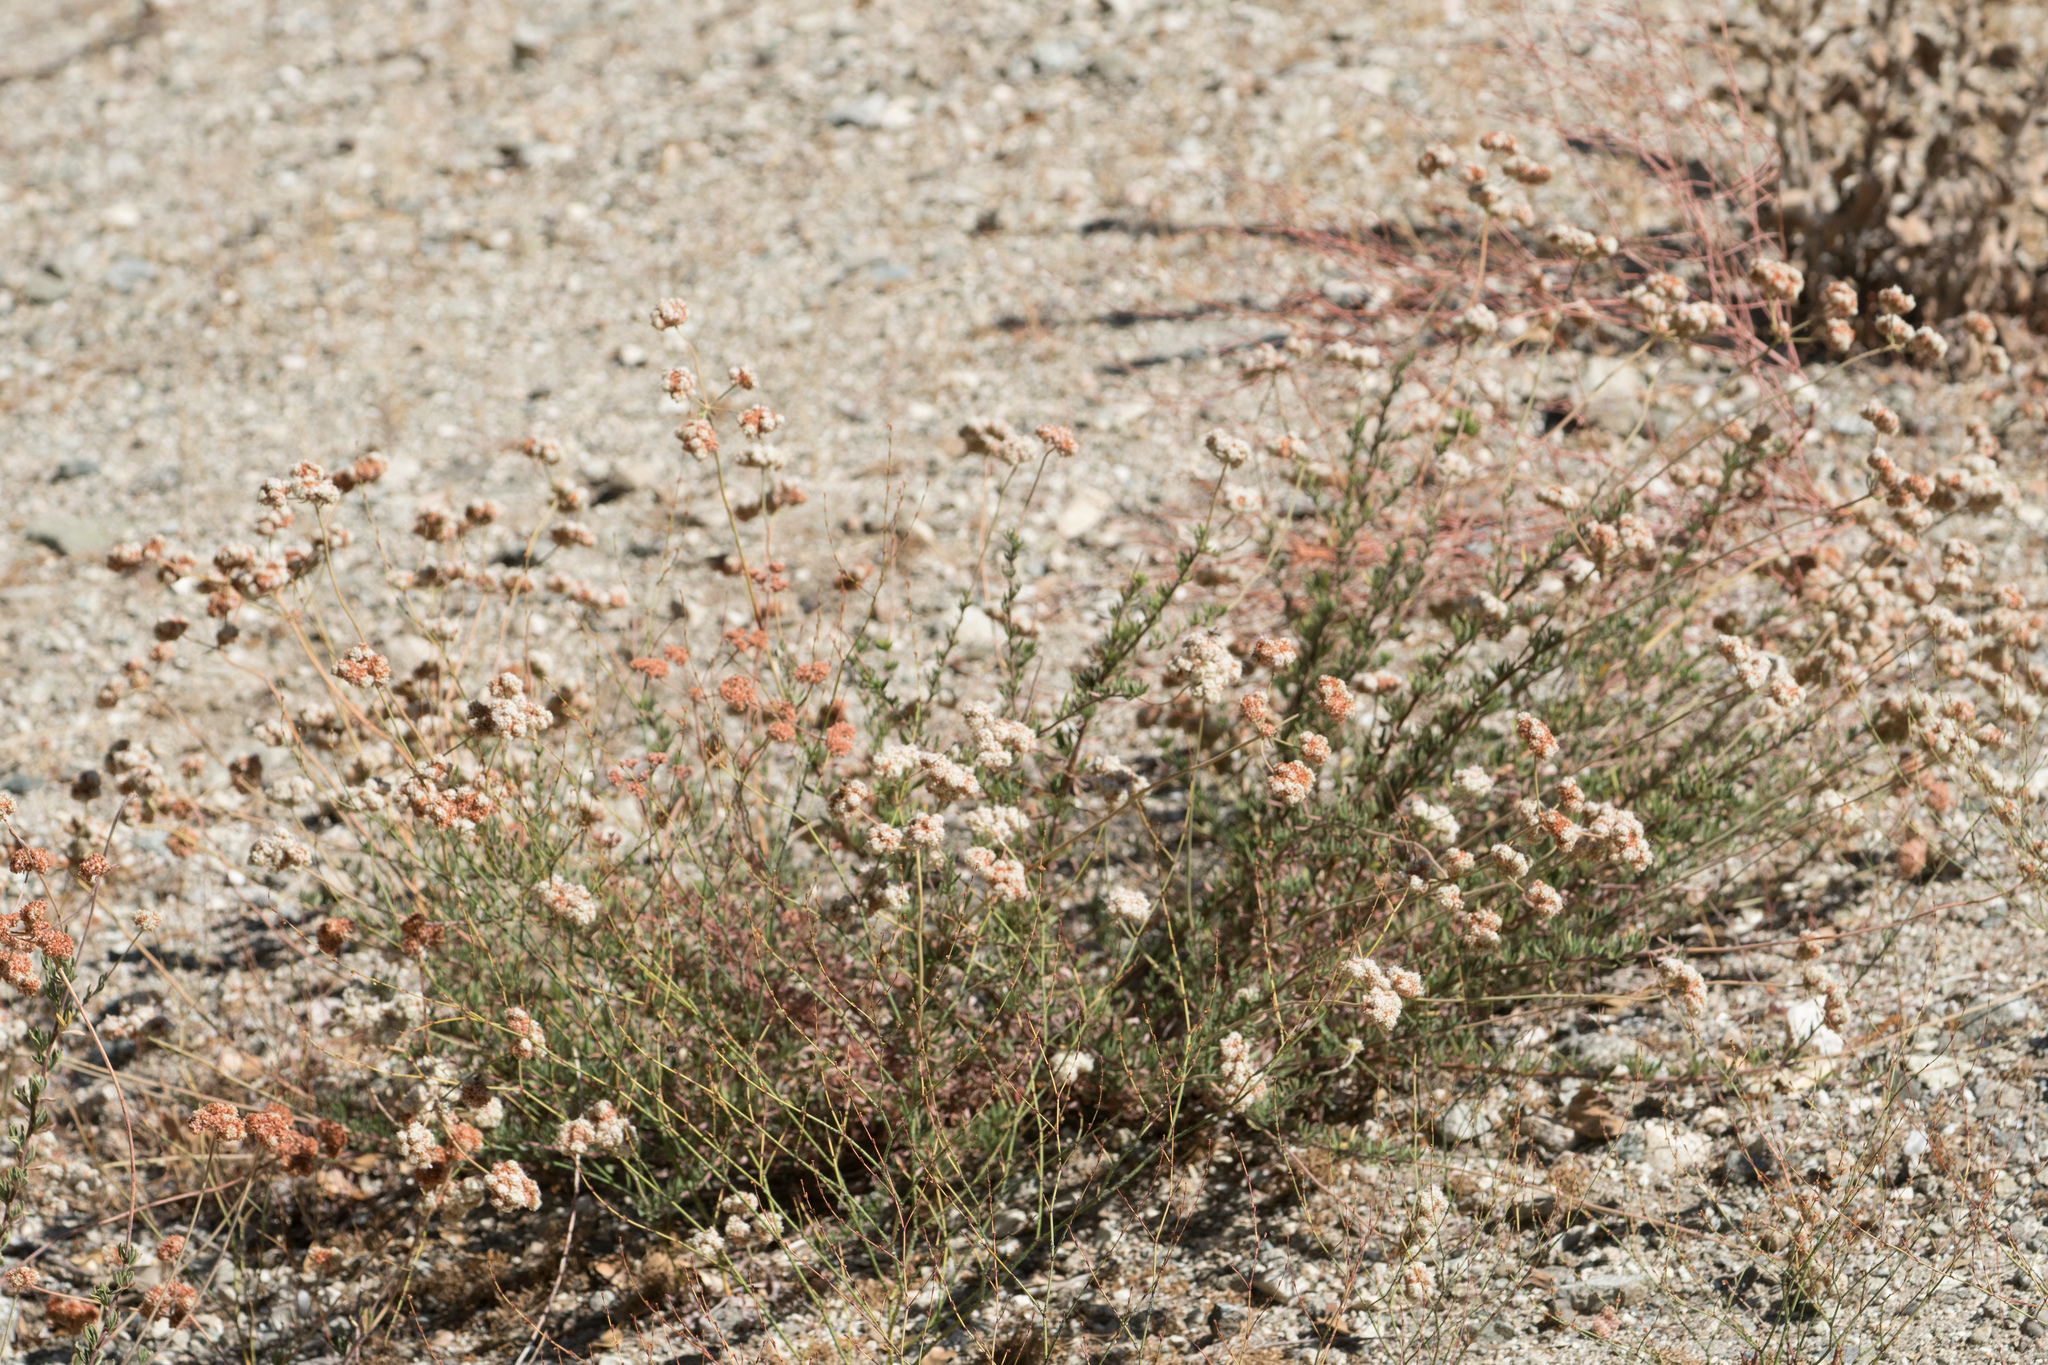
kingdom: Plantae
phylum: Tracheophyta
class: Magnoliopsida
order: Caryophyllales
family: Polygonaceae
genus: Eriogonum
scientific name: Eriogonum fasciculatum
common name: California wild buckwheat
